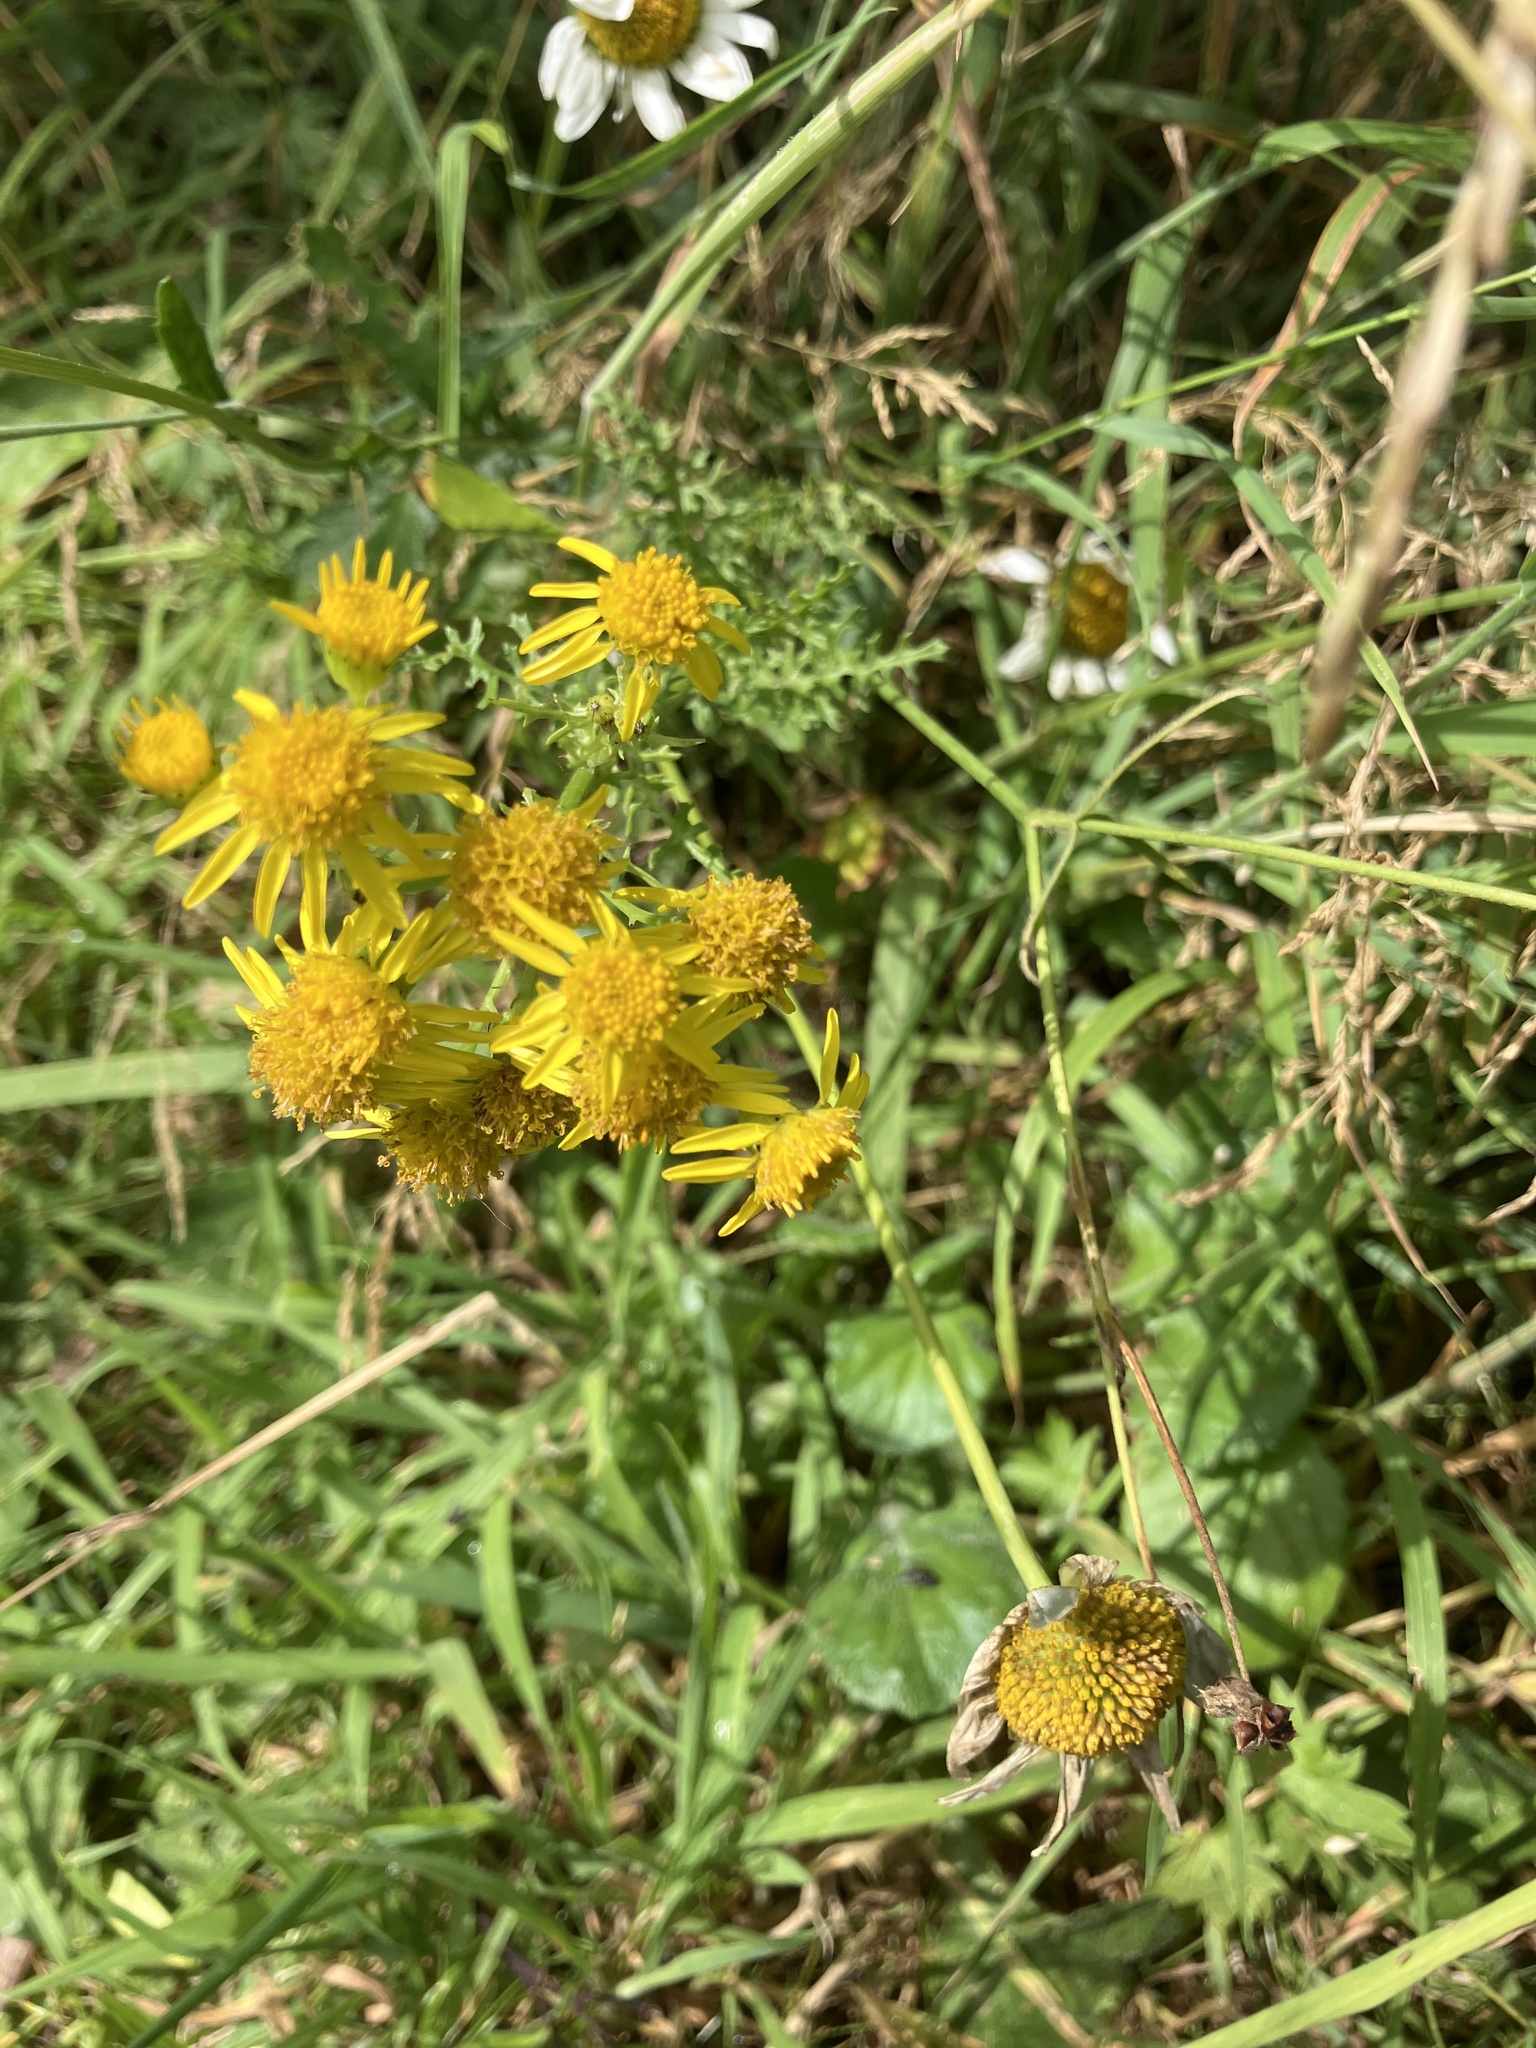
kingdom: Plantae
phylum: Tracheophyta
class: Magnoliopsida
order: Asterales
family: Asteraceae
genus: Jacobaea
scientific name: Jacobaea vulgaris
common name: Stinking willie
